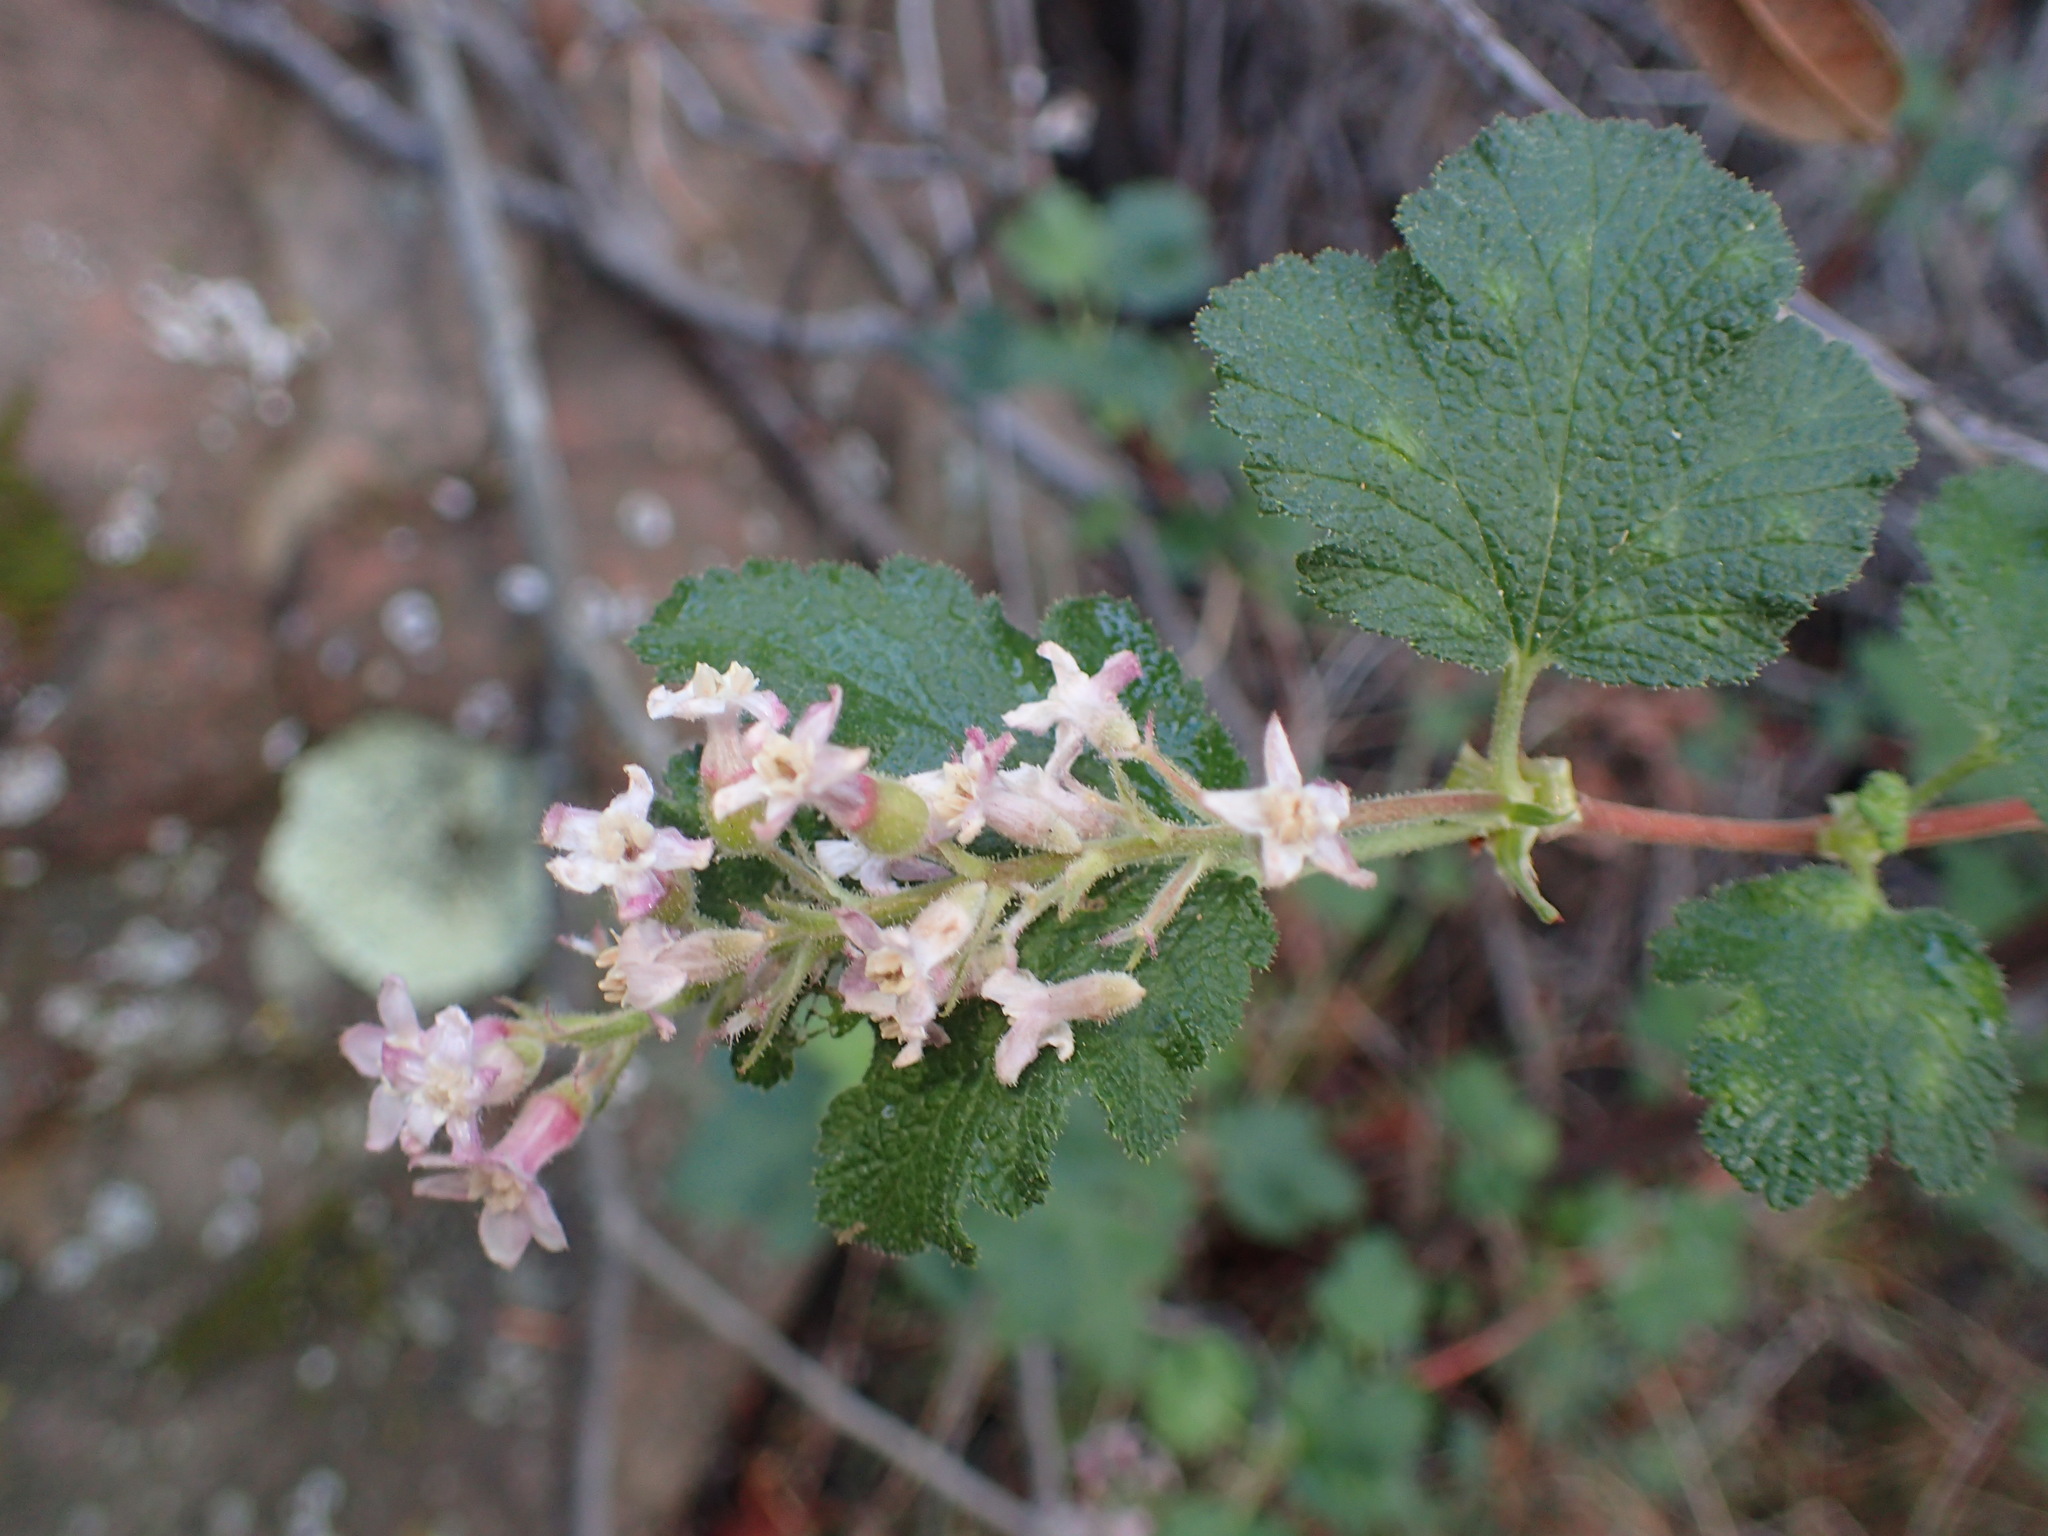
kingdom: Plantae
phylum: Tracheophyta
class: Magnoliopsida
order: Saxifragales
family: Grossulariaceae
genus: Ribes
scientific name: Ribes malvaceum
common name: Chaparral currant
